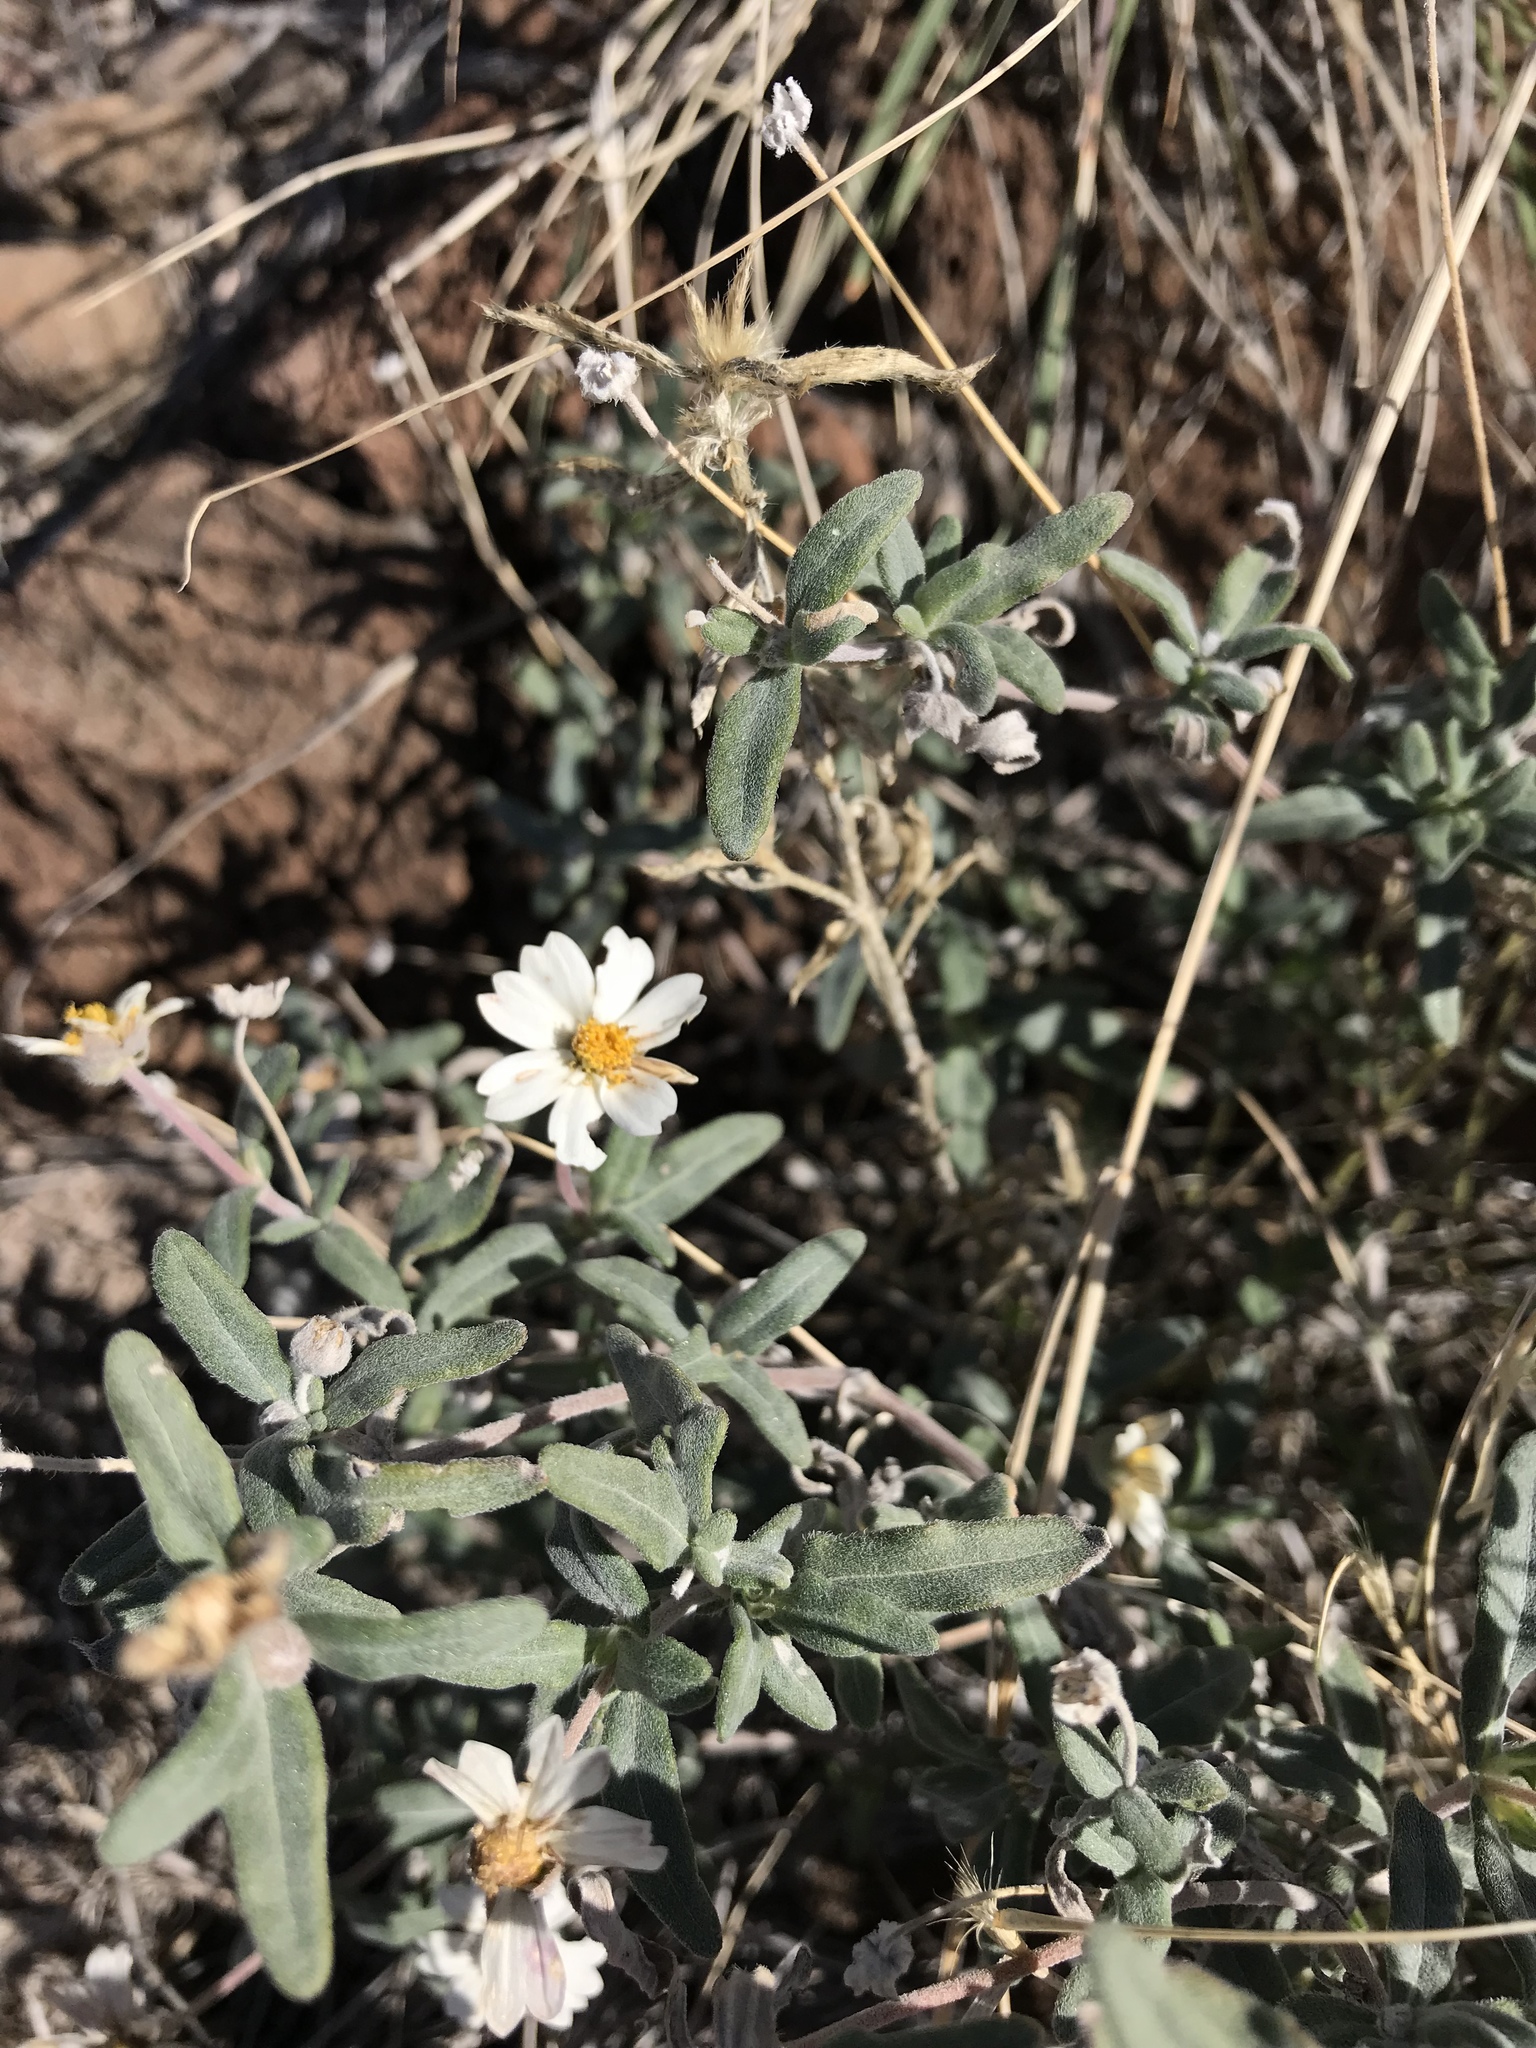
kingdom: Plantae
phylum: Tracheophyta
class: Magnoliopsida
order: Asterales
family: Asteraceae
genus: Melampodium
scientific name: Melampodium leucanthum
